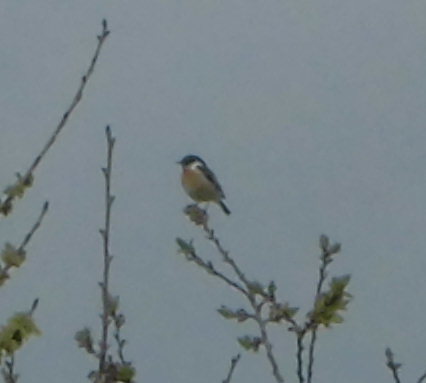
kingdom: Animalia
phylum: Chordata
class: Aves
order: Passeriformes
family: Muscicapidae
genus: Saxicola
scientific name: Saxicola rubicola
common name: European stonechat
